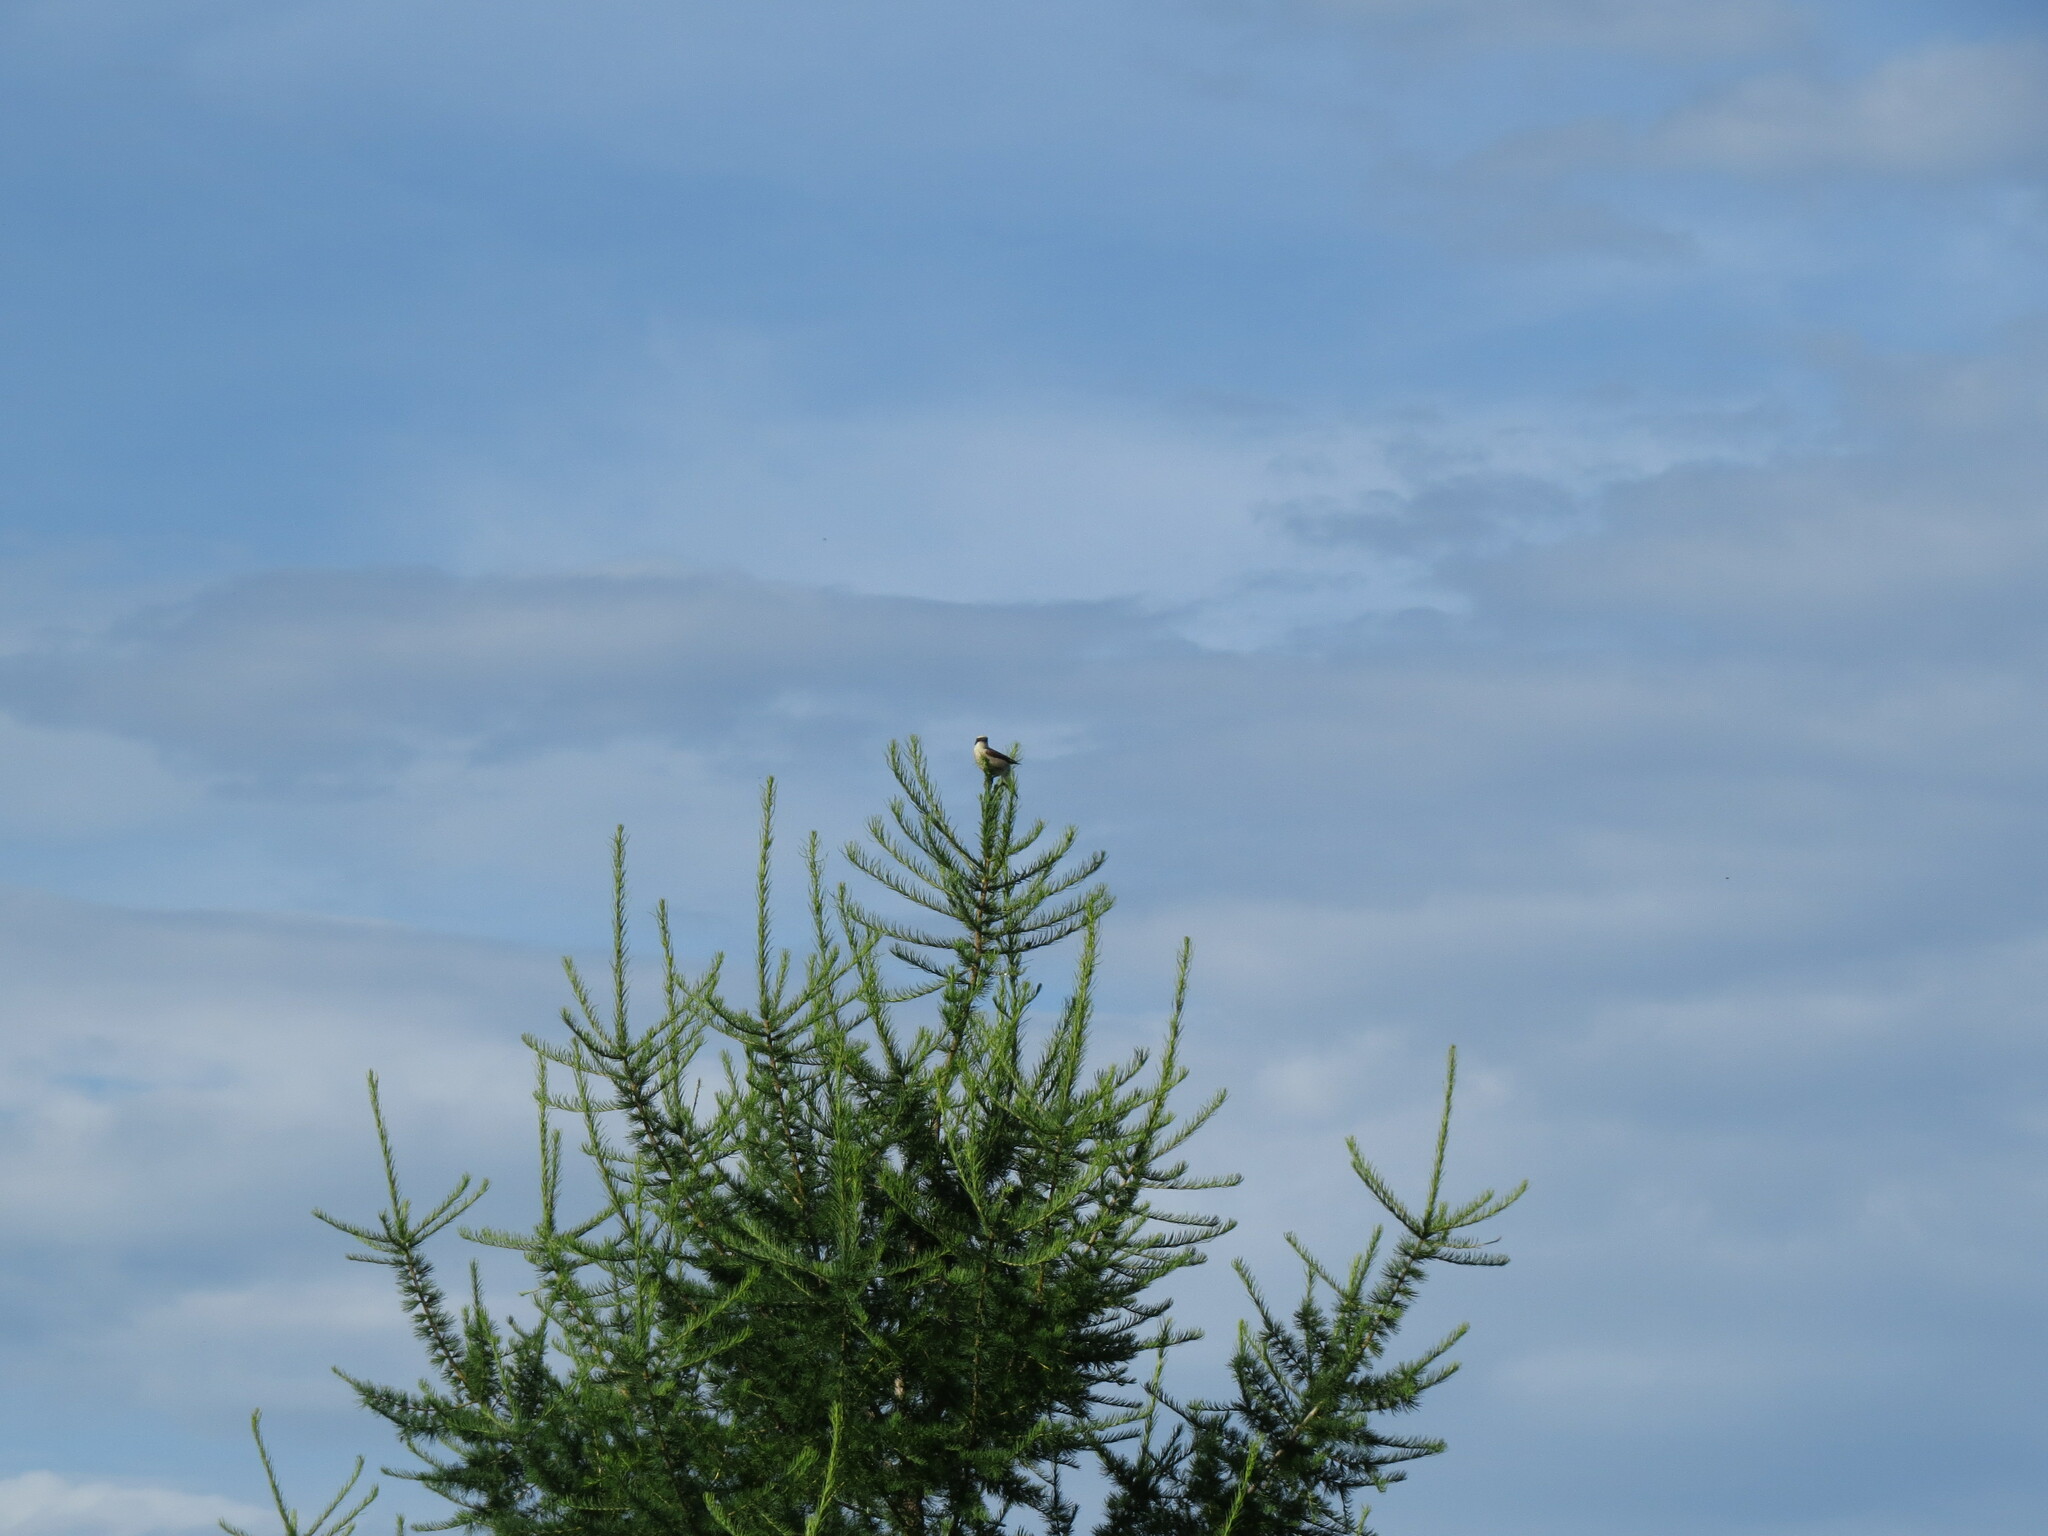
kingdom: Animalia
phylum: Chordata
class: Aves
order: Passeriformes
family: Laniidae
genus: Lanius
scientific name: Lanius collurio
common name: Red-backed shrike
